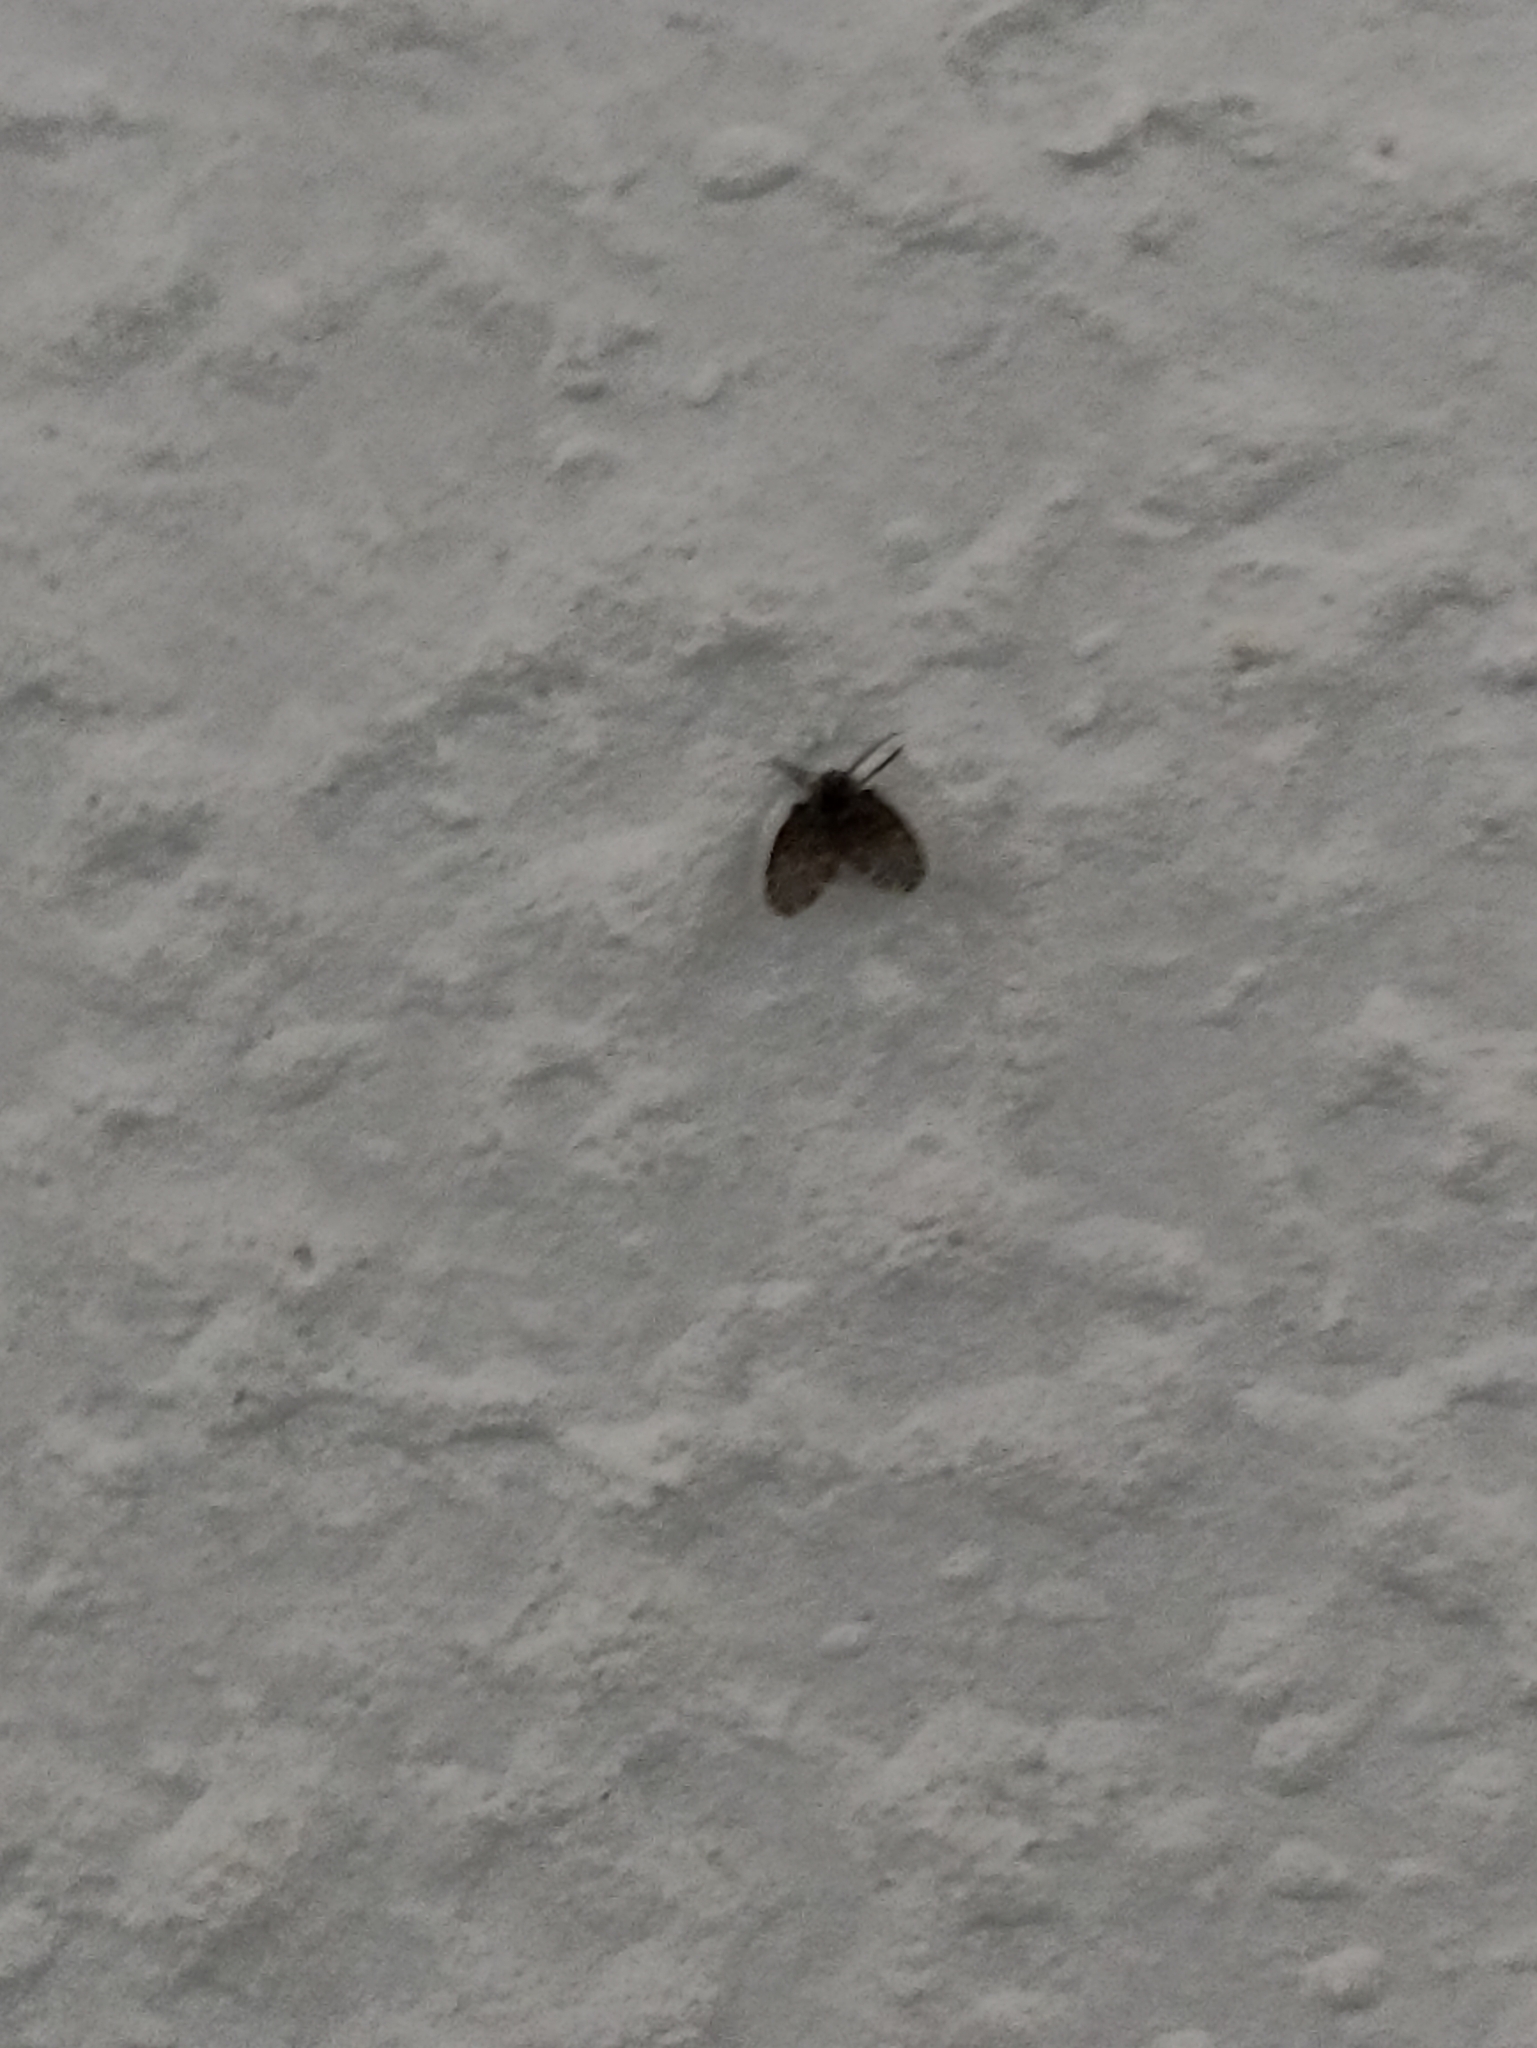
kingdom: Animalia
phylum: Arthropoda
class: Insecta
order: Diptera
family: Psychodidae
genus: Clogmia
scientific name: Clogmia albipunctatus
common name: White-spotted moth fly
